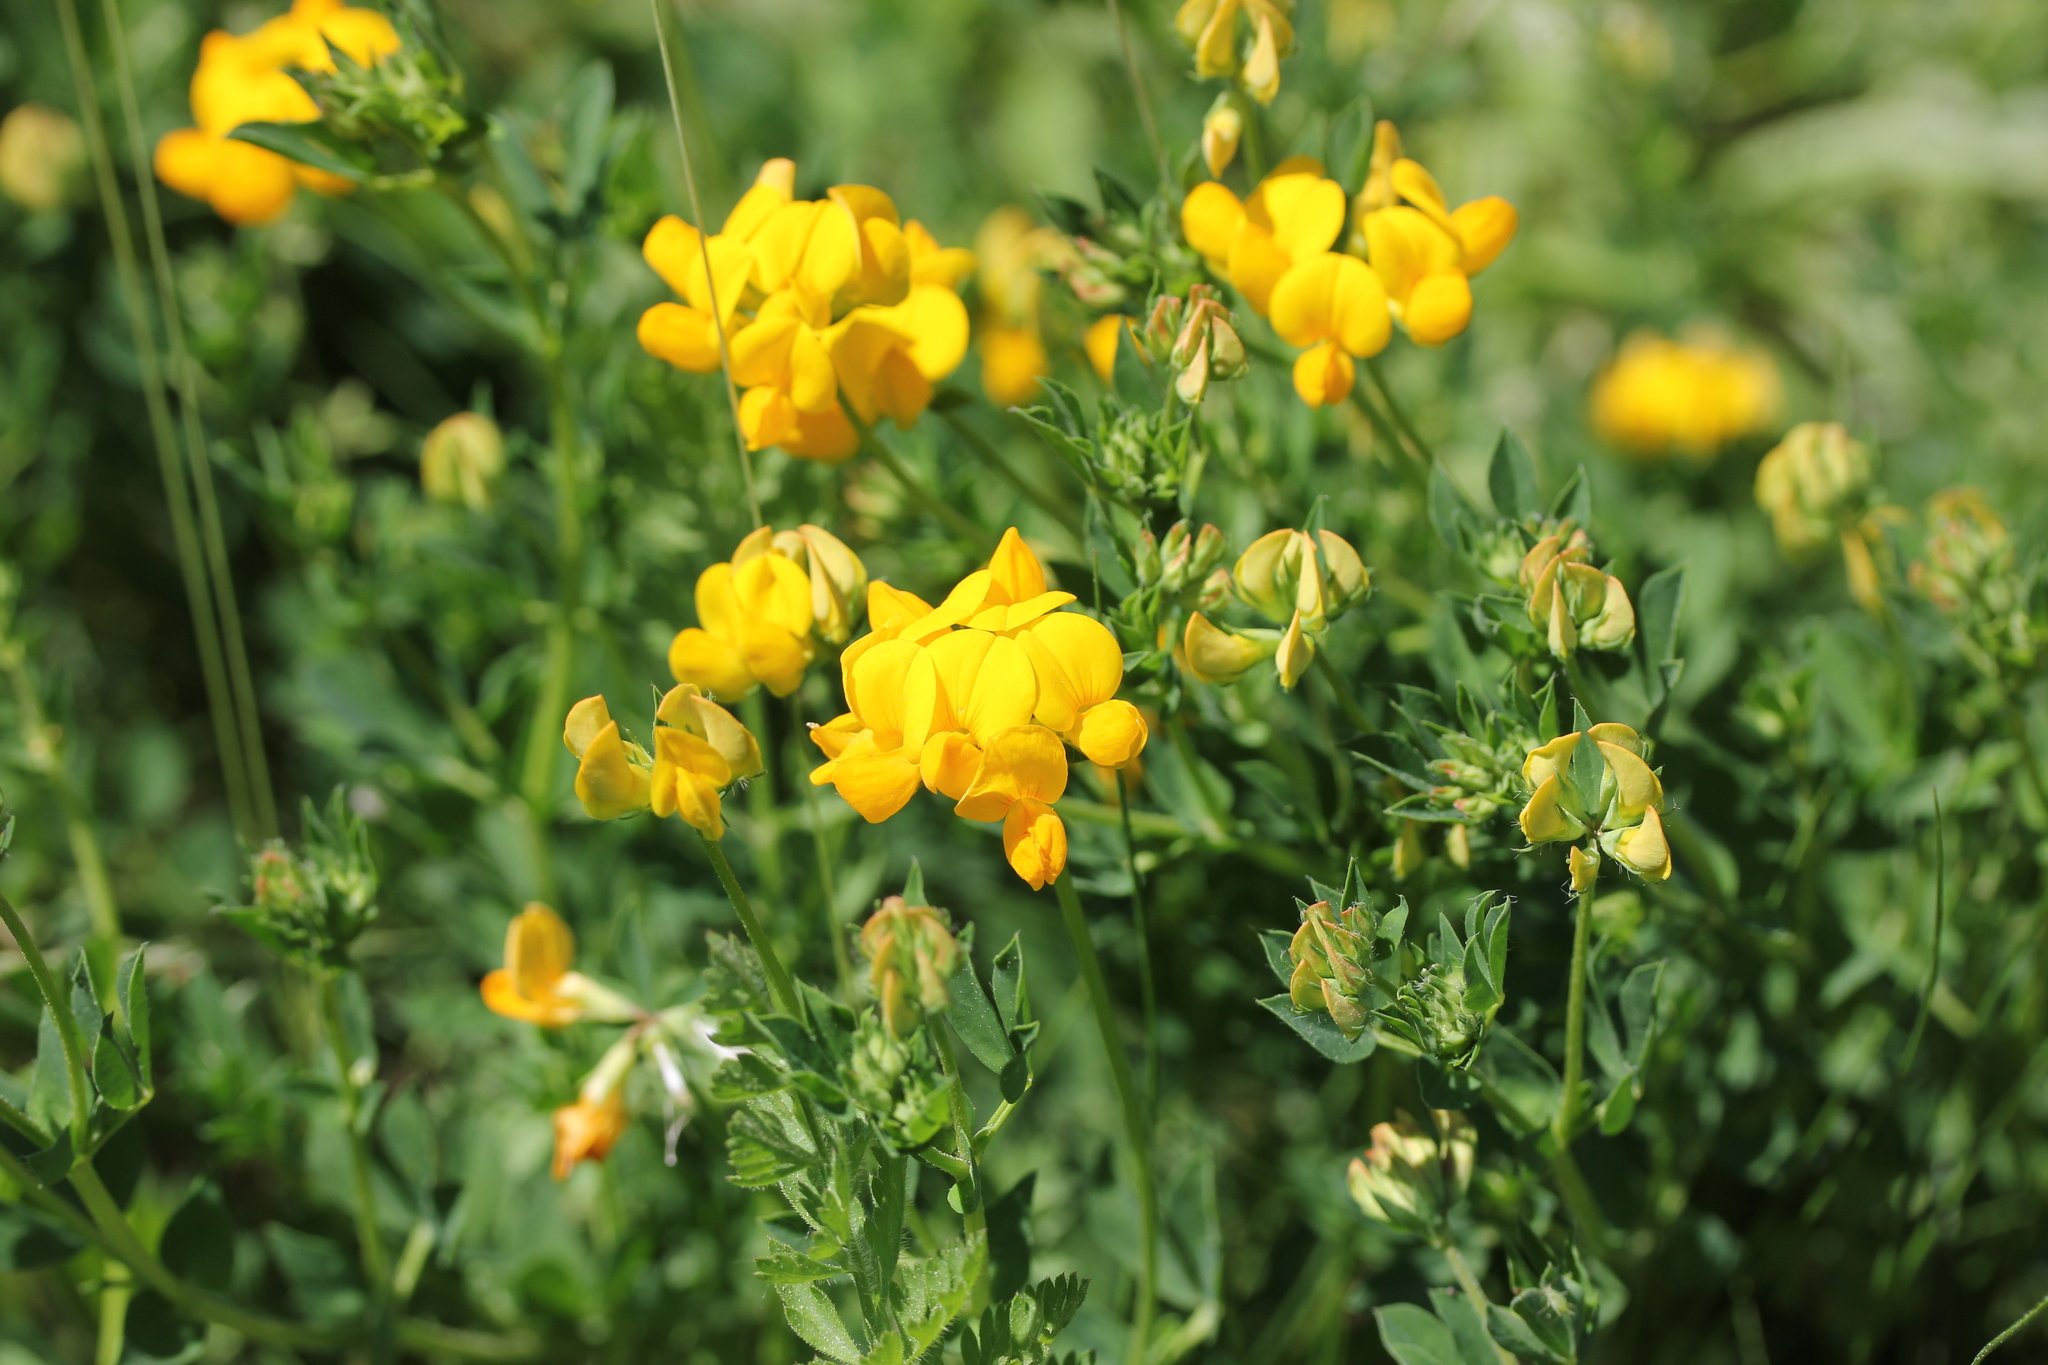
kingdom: Plantae
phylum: Tracheophyta
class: Magnoliopsida
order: Fabales
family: Fabaceae
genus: Lotus
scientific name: Lotus corniculatus
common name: Common bird's-foot-trefoil
